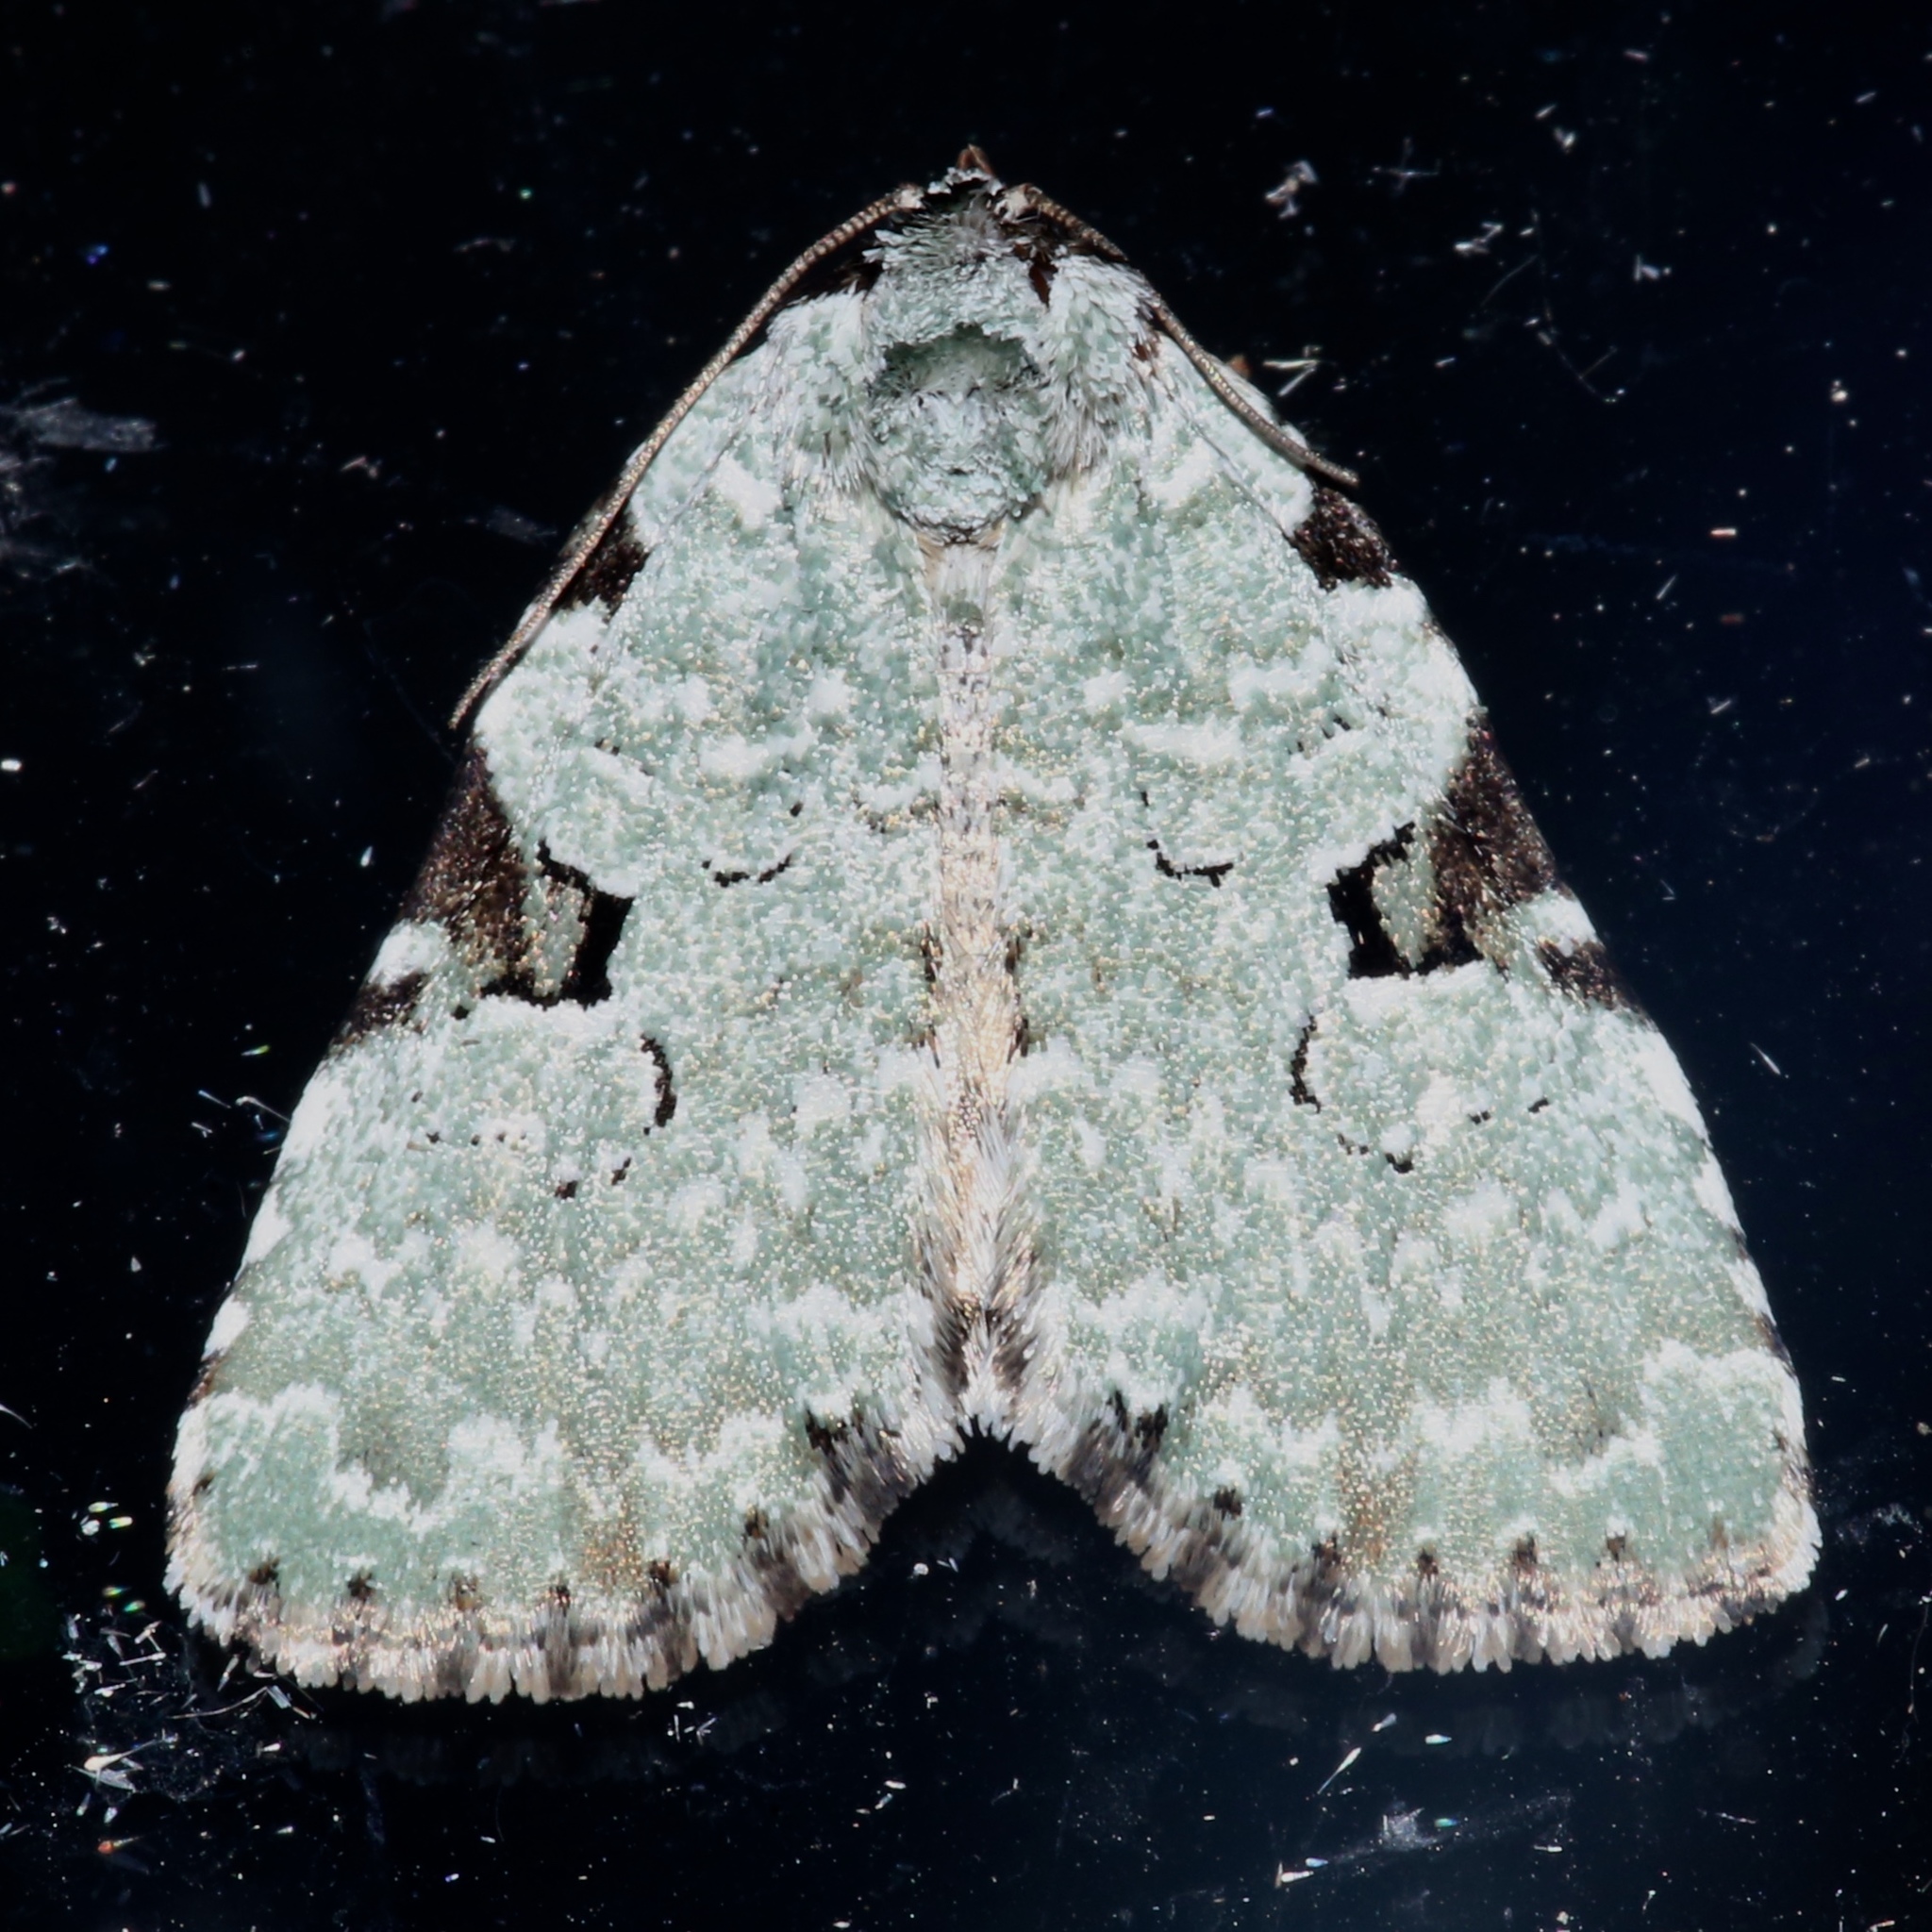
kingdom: Animalia
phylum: Arthropoda
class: Insecta
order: Lepidoptera
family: Noctuidae
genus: Leuconycta
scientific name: Leuconycta diphteroides
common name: Green leuconycta moth
